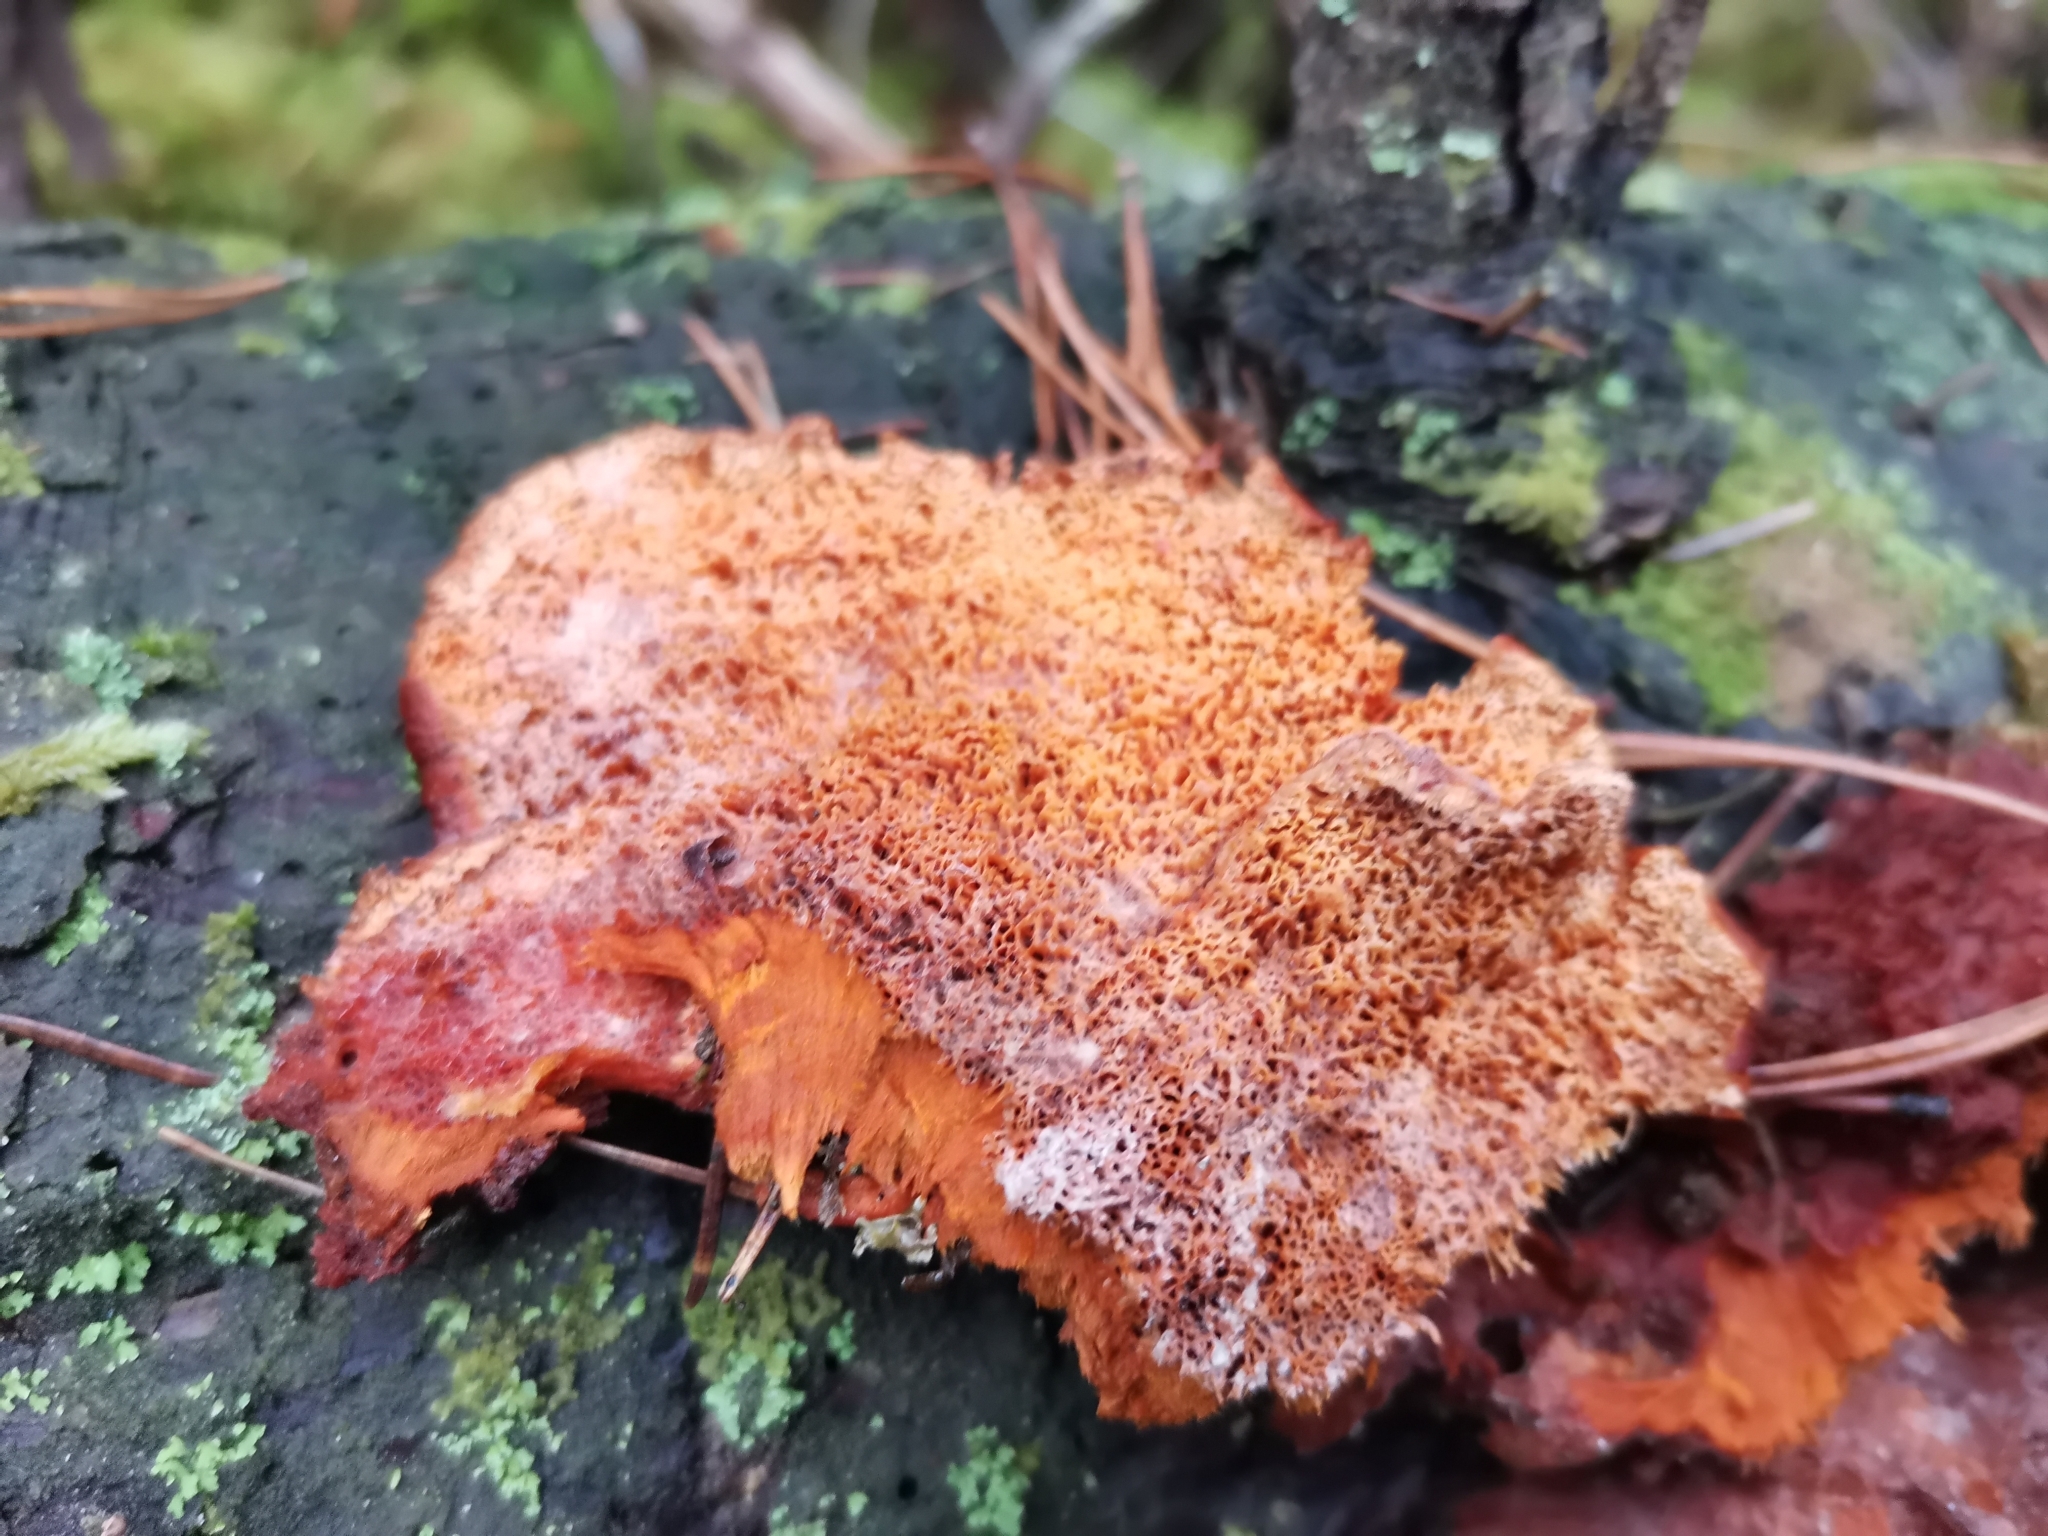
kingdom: Fungi
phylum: Basidiomycota
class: Agaricomycetes
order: Polyporales
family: Pycnoporellaceae
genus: Pycnoporellus
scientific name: Pycnoporellus fulgens
